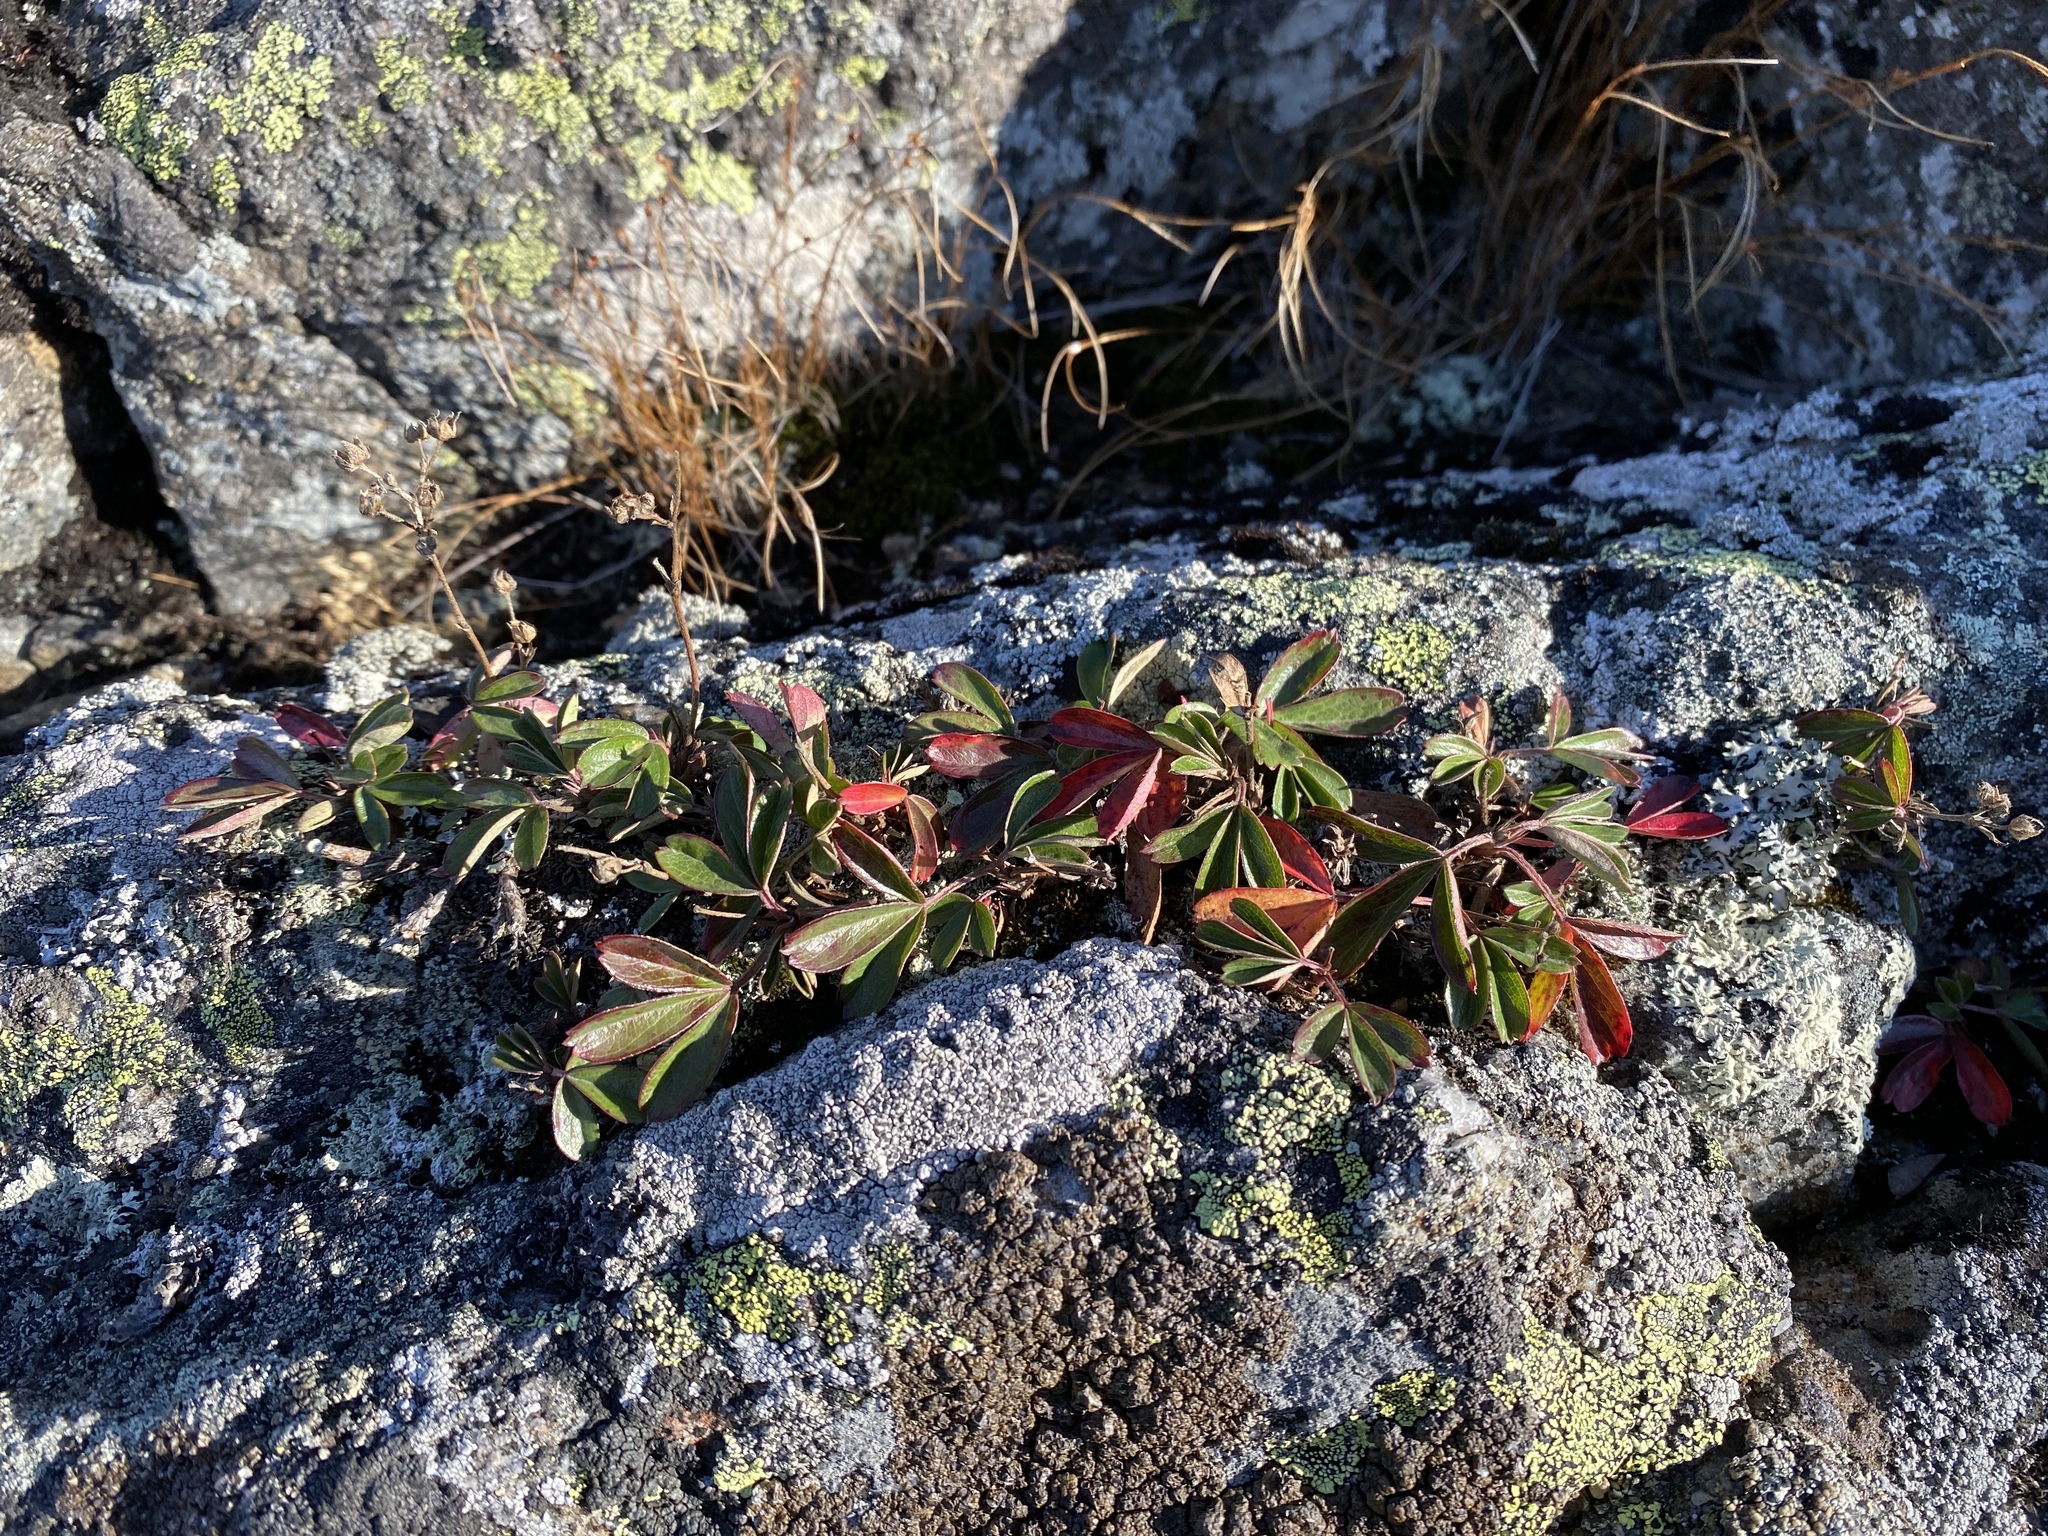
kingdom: Plantae
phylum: Tracheophyta
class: Magnoliopsida
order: Rosales
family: Rosaceae
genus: Sibbaldia
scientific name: Sibbaldia tridentata
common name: Three-toothed cinquefoil
